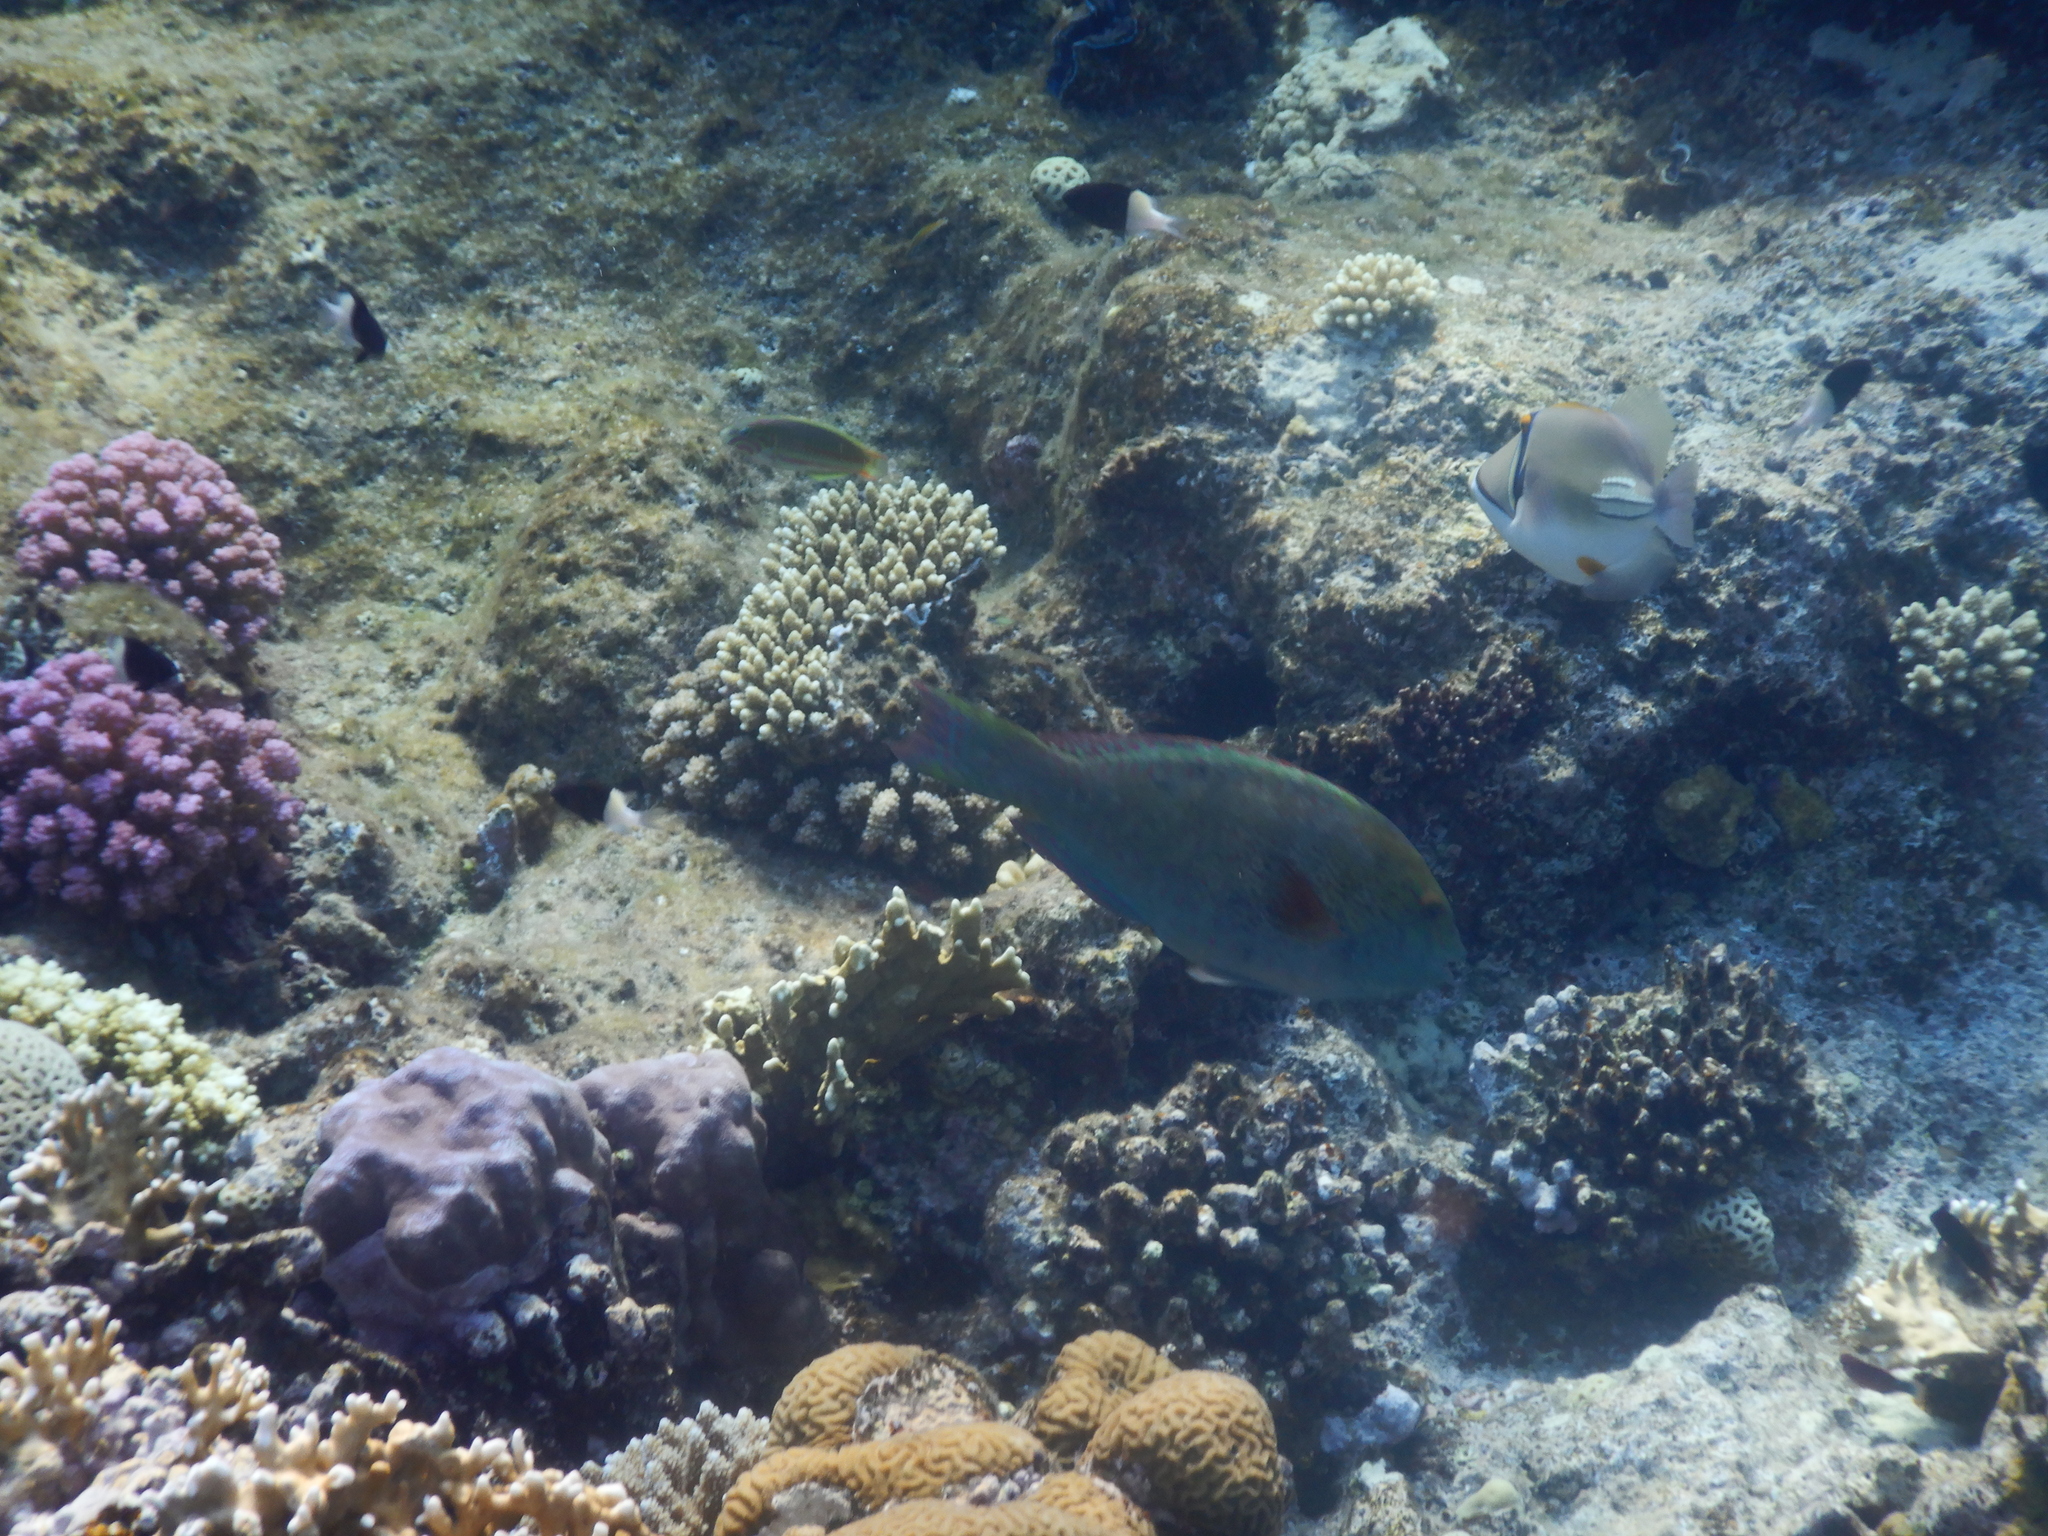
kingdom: Animalia
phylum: Chordata
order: Perciformes
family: Scaridae
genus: Calotomus
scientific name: Calotomus viridescens
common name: Dotted parrotfish
